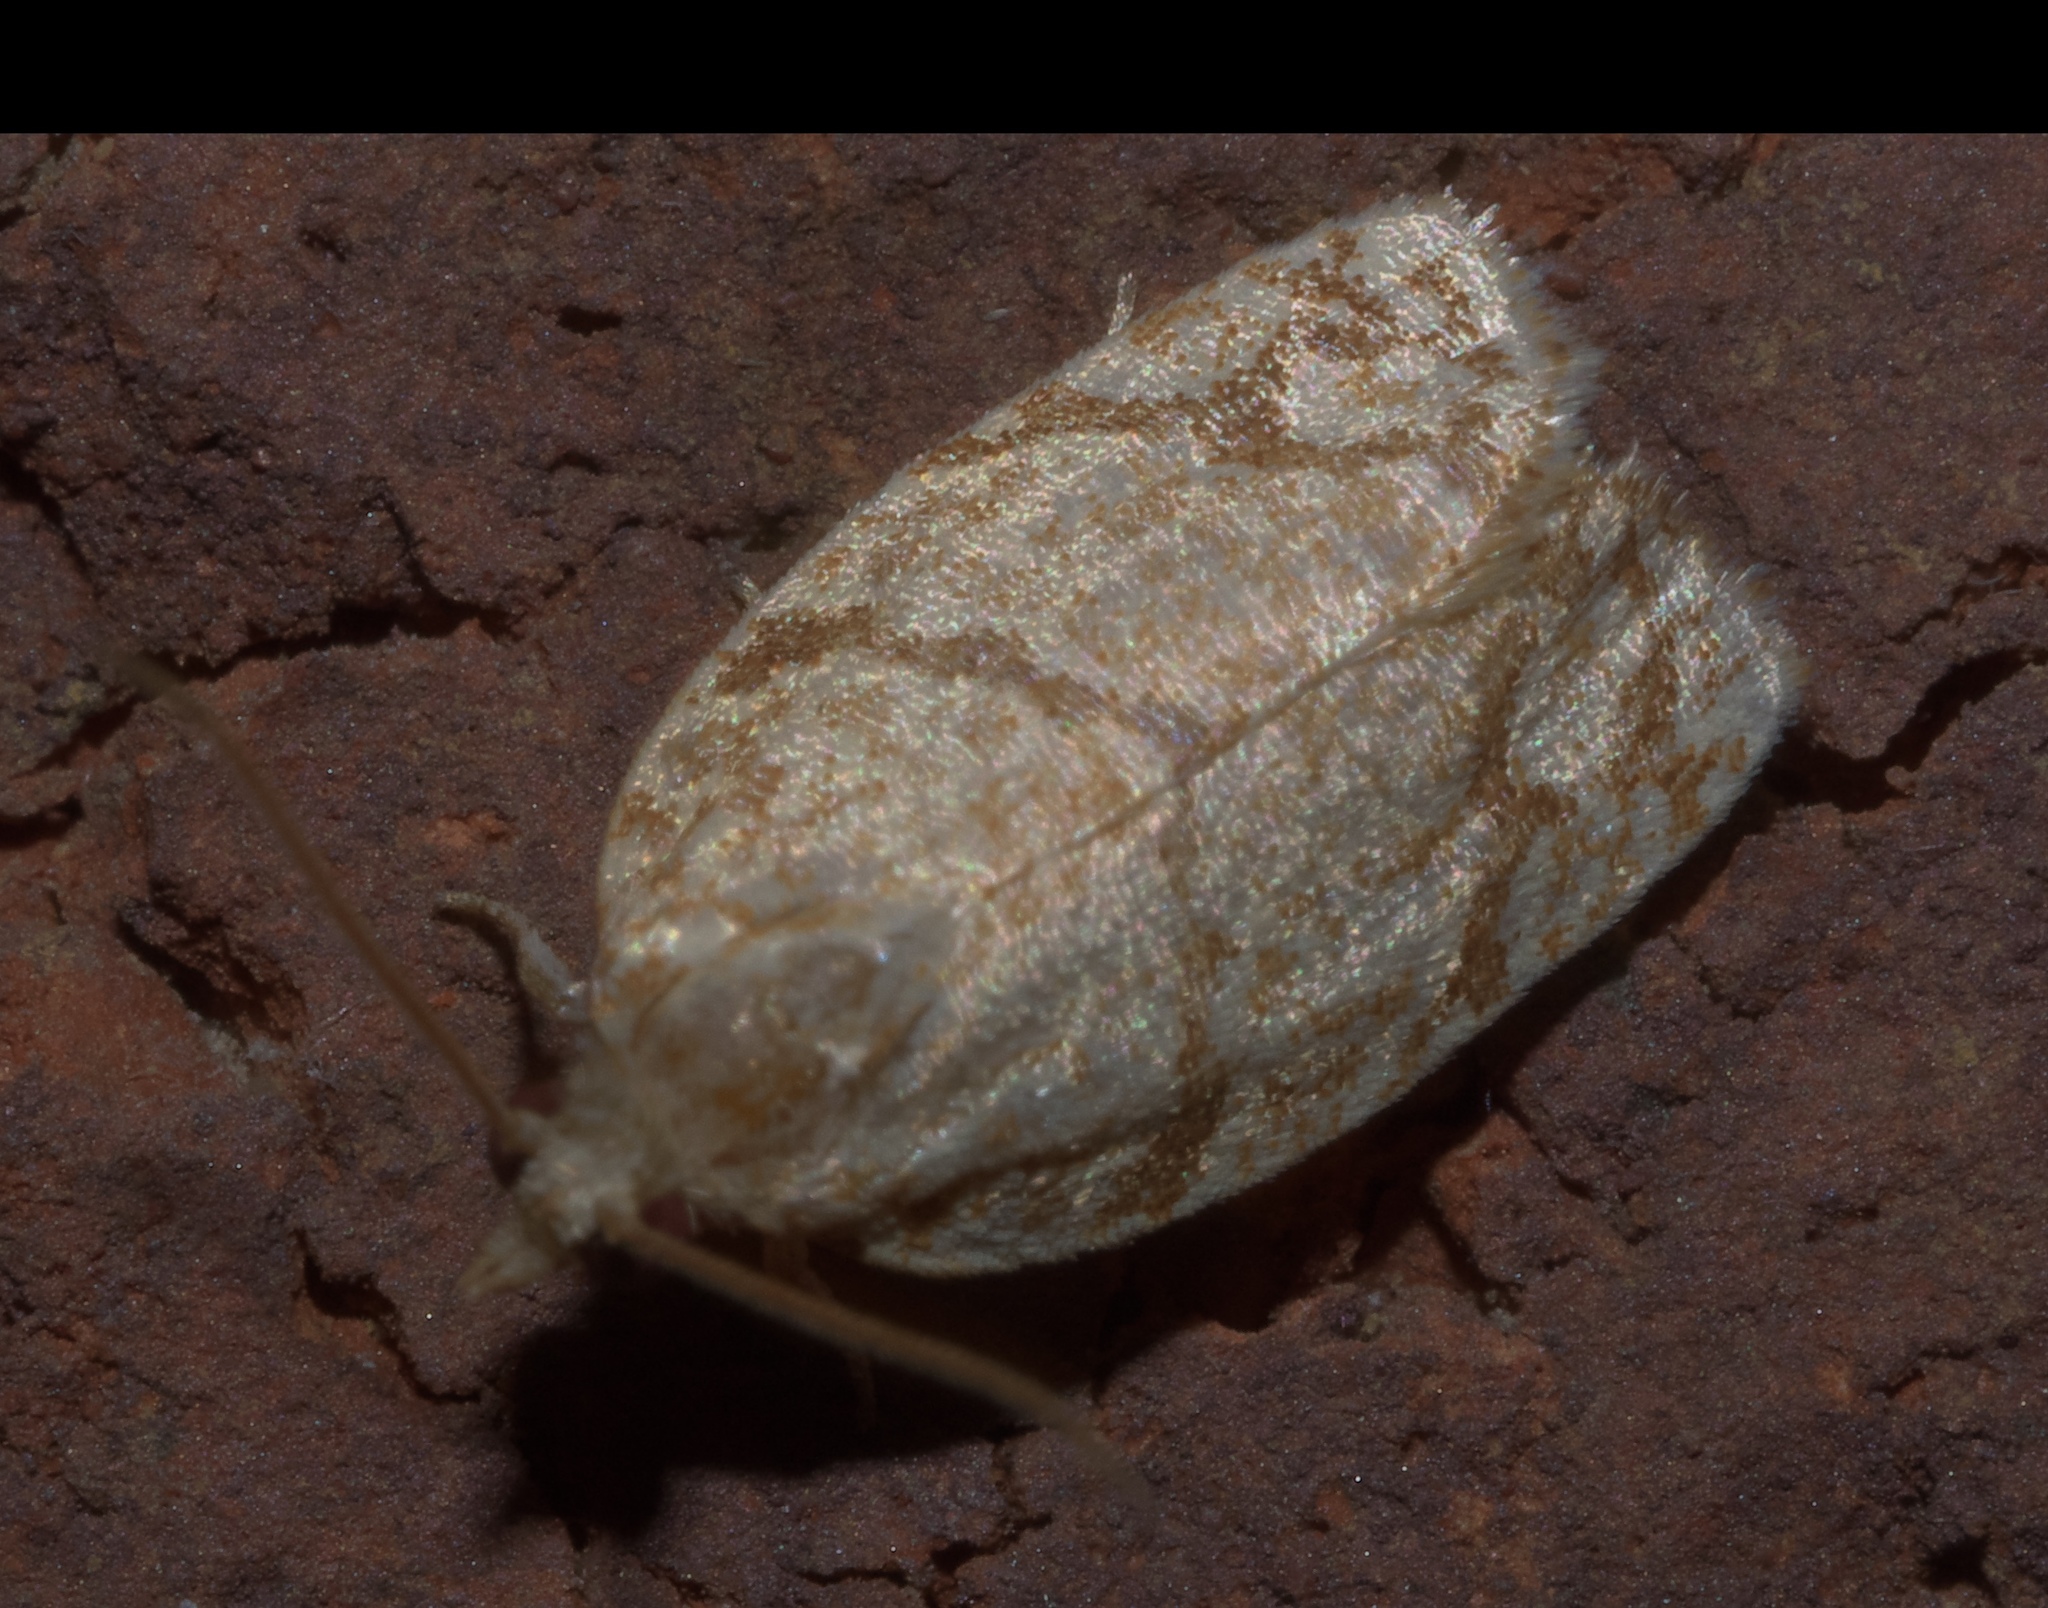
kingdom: Animalia
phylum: Arthropoda
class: Insecta
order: Lepidoptera
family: Tortricidae
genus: Argyrotaenia
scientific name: Argyrotaenia quercifoliana
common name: Yellow-winged oak leafroller moth
